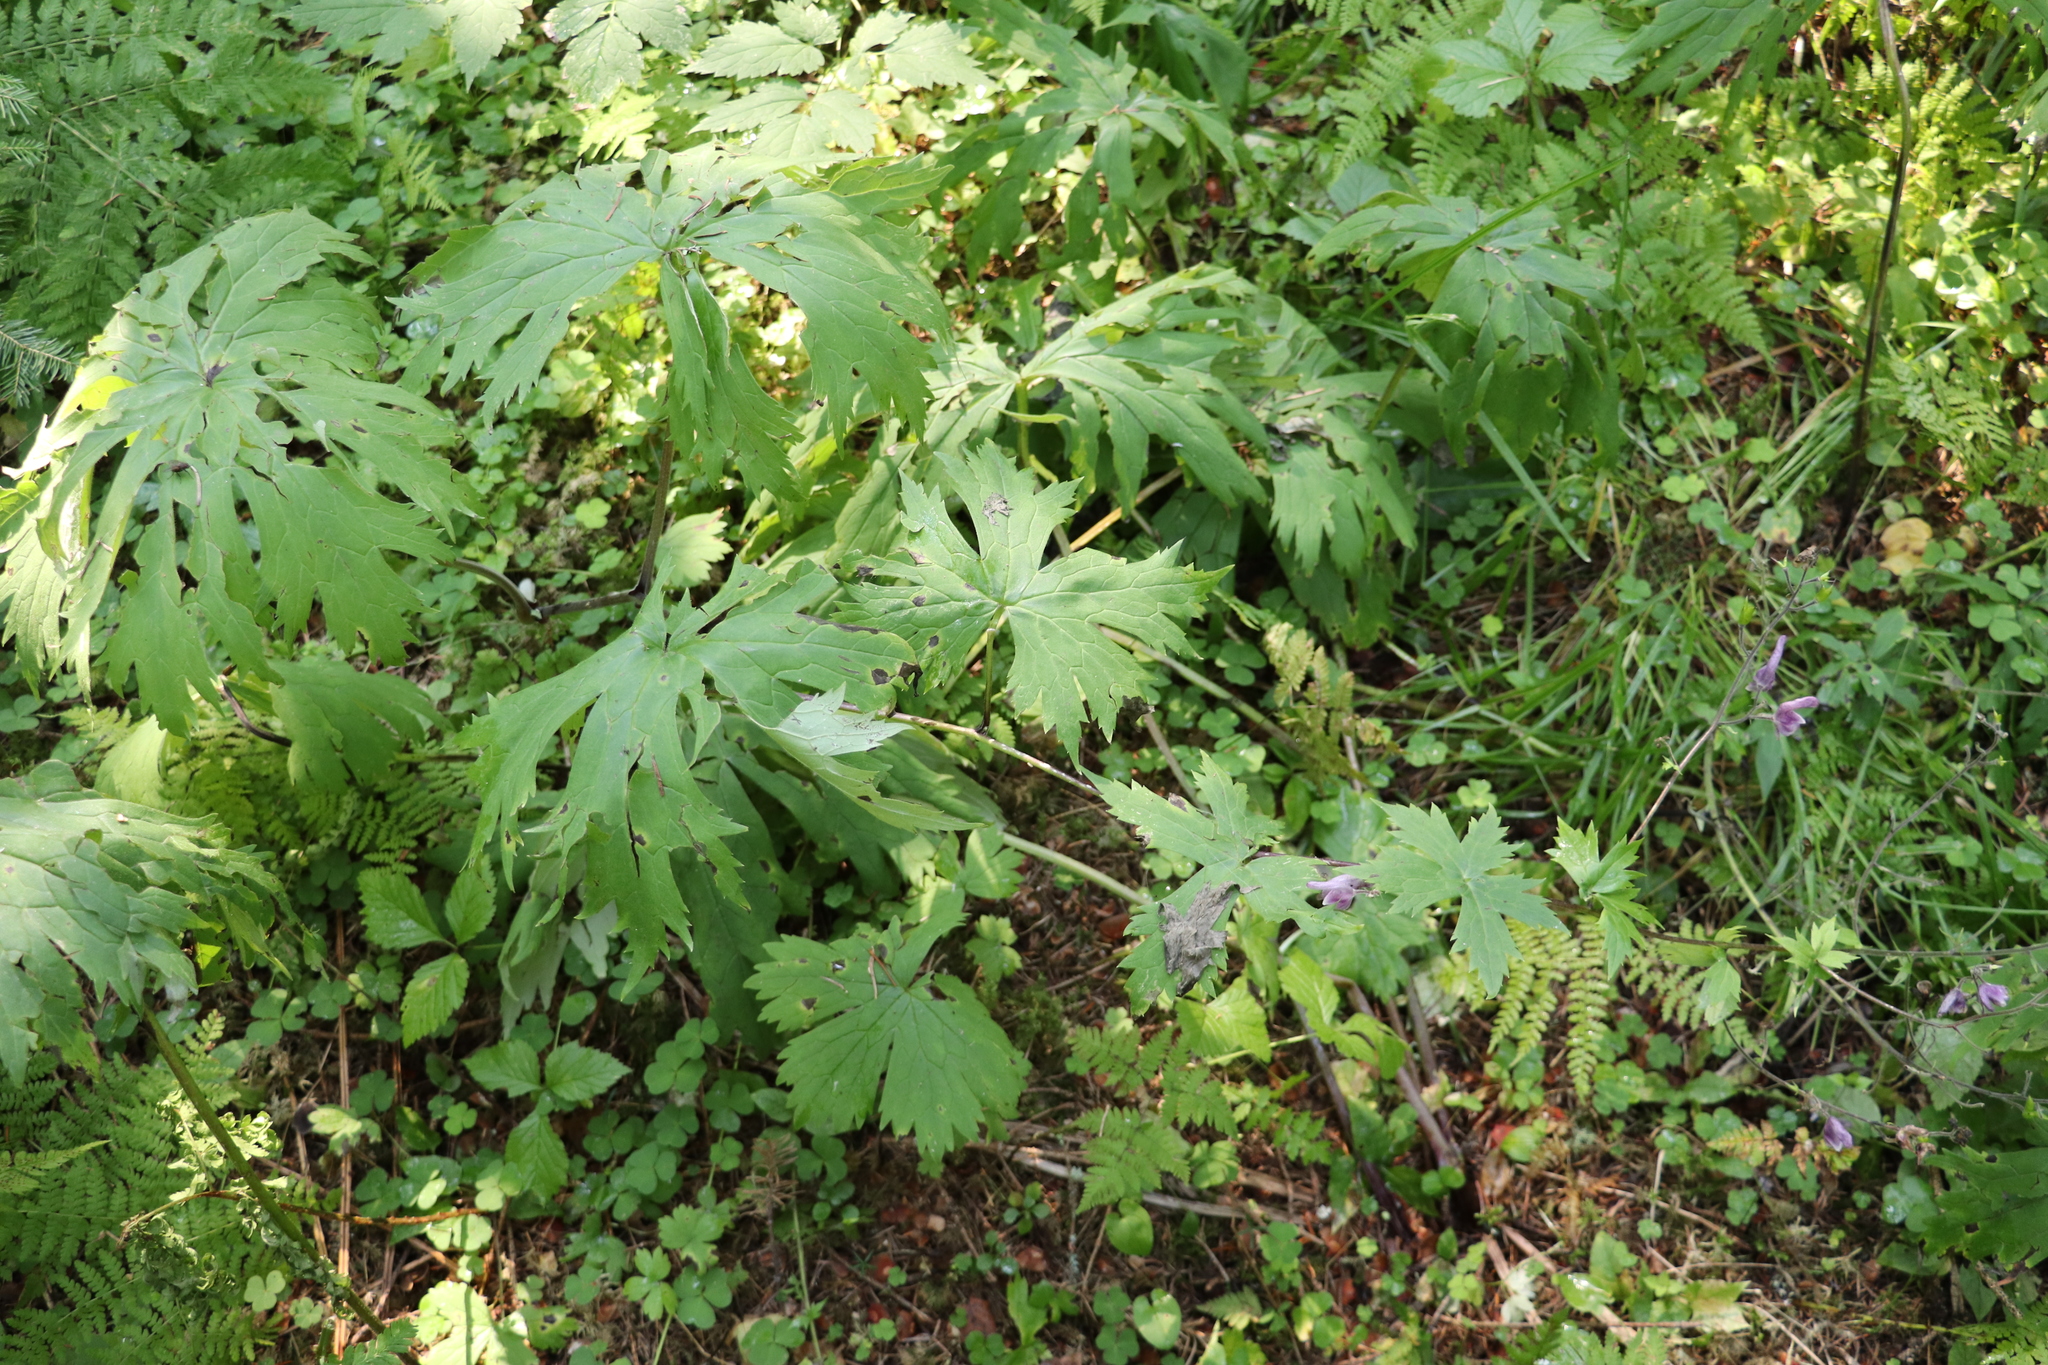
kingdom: Plantae
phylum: Tracheophyta
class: Magnoliopsida
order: Ranunculales
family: Ranunculaceae
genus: Aconitum
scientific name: Aconitum septentrionale
